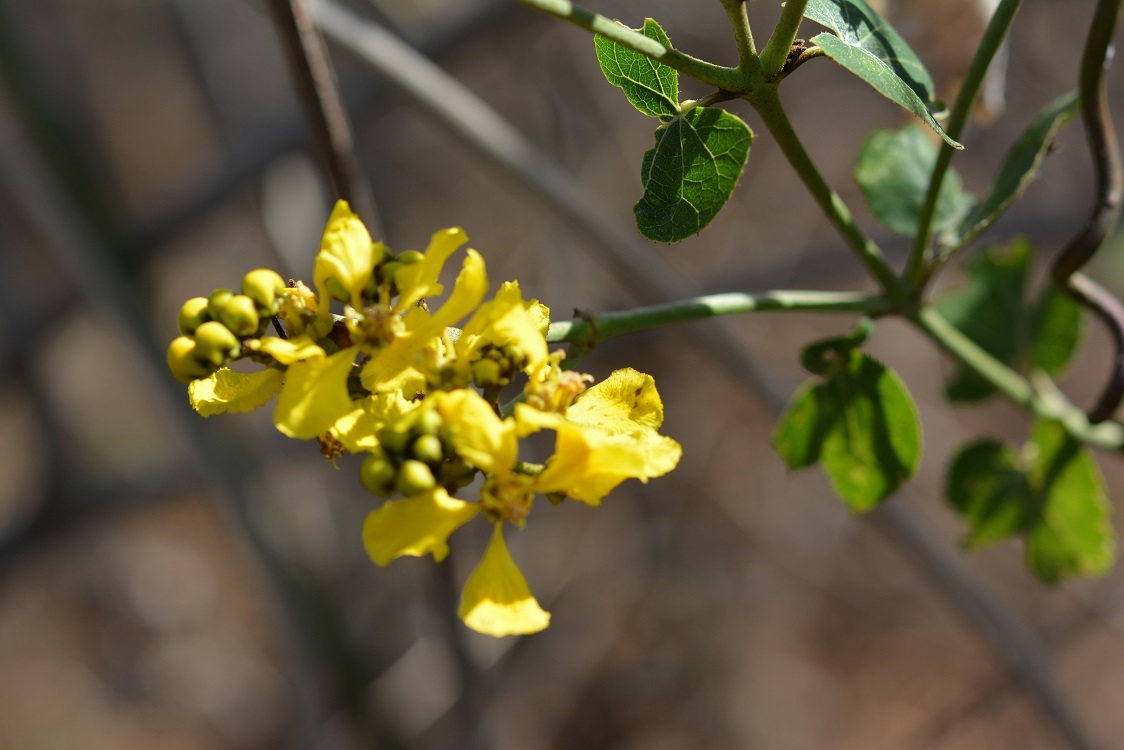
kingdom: Plantae
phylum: Tracheophyta
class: Magnoliopsida
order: Malpighiales
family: Malpighiaceae
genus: Stigmaphyllon
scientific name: Stigmaphyllon ellipticum
